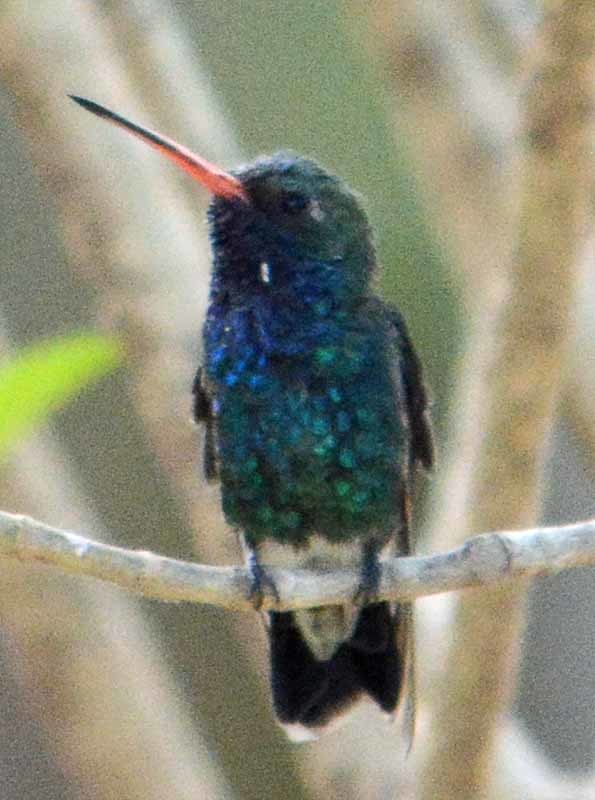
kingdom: Animalia
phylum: Chordata
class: Aves
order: Apodiformes
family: Trochilidae
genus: Cynanthus
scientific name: Cynanthus latirostris
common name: Broad-billed hummingbird
